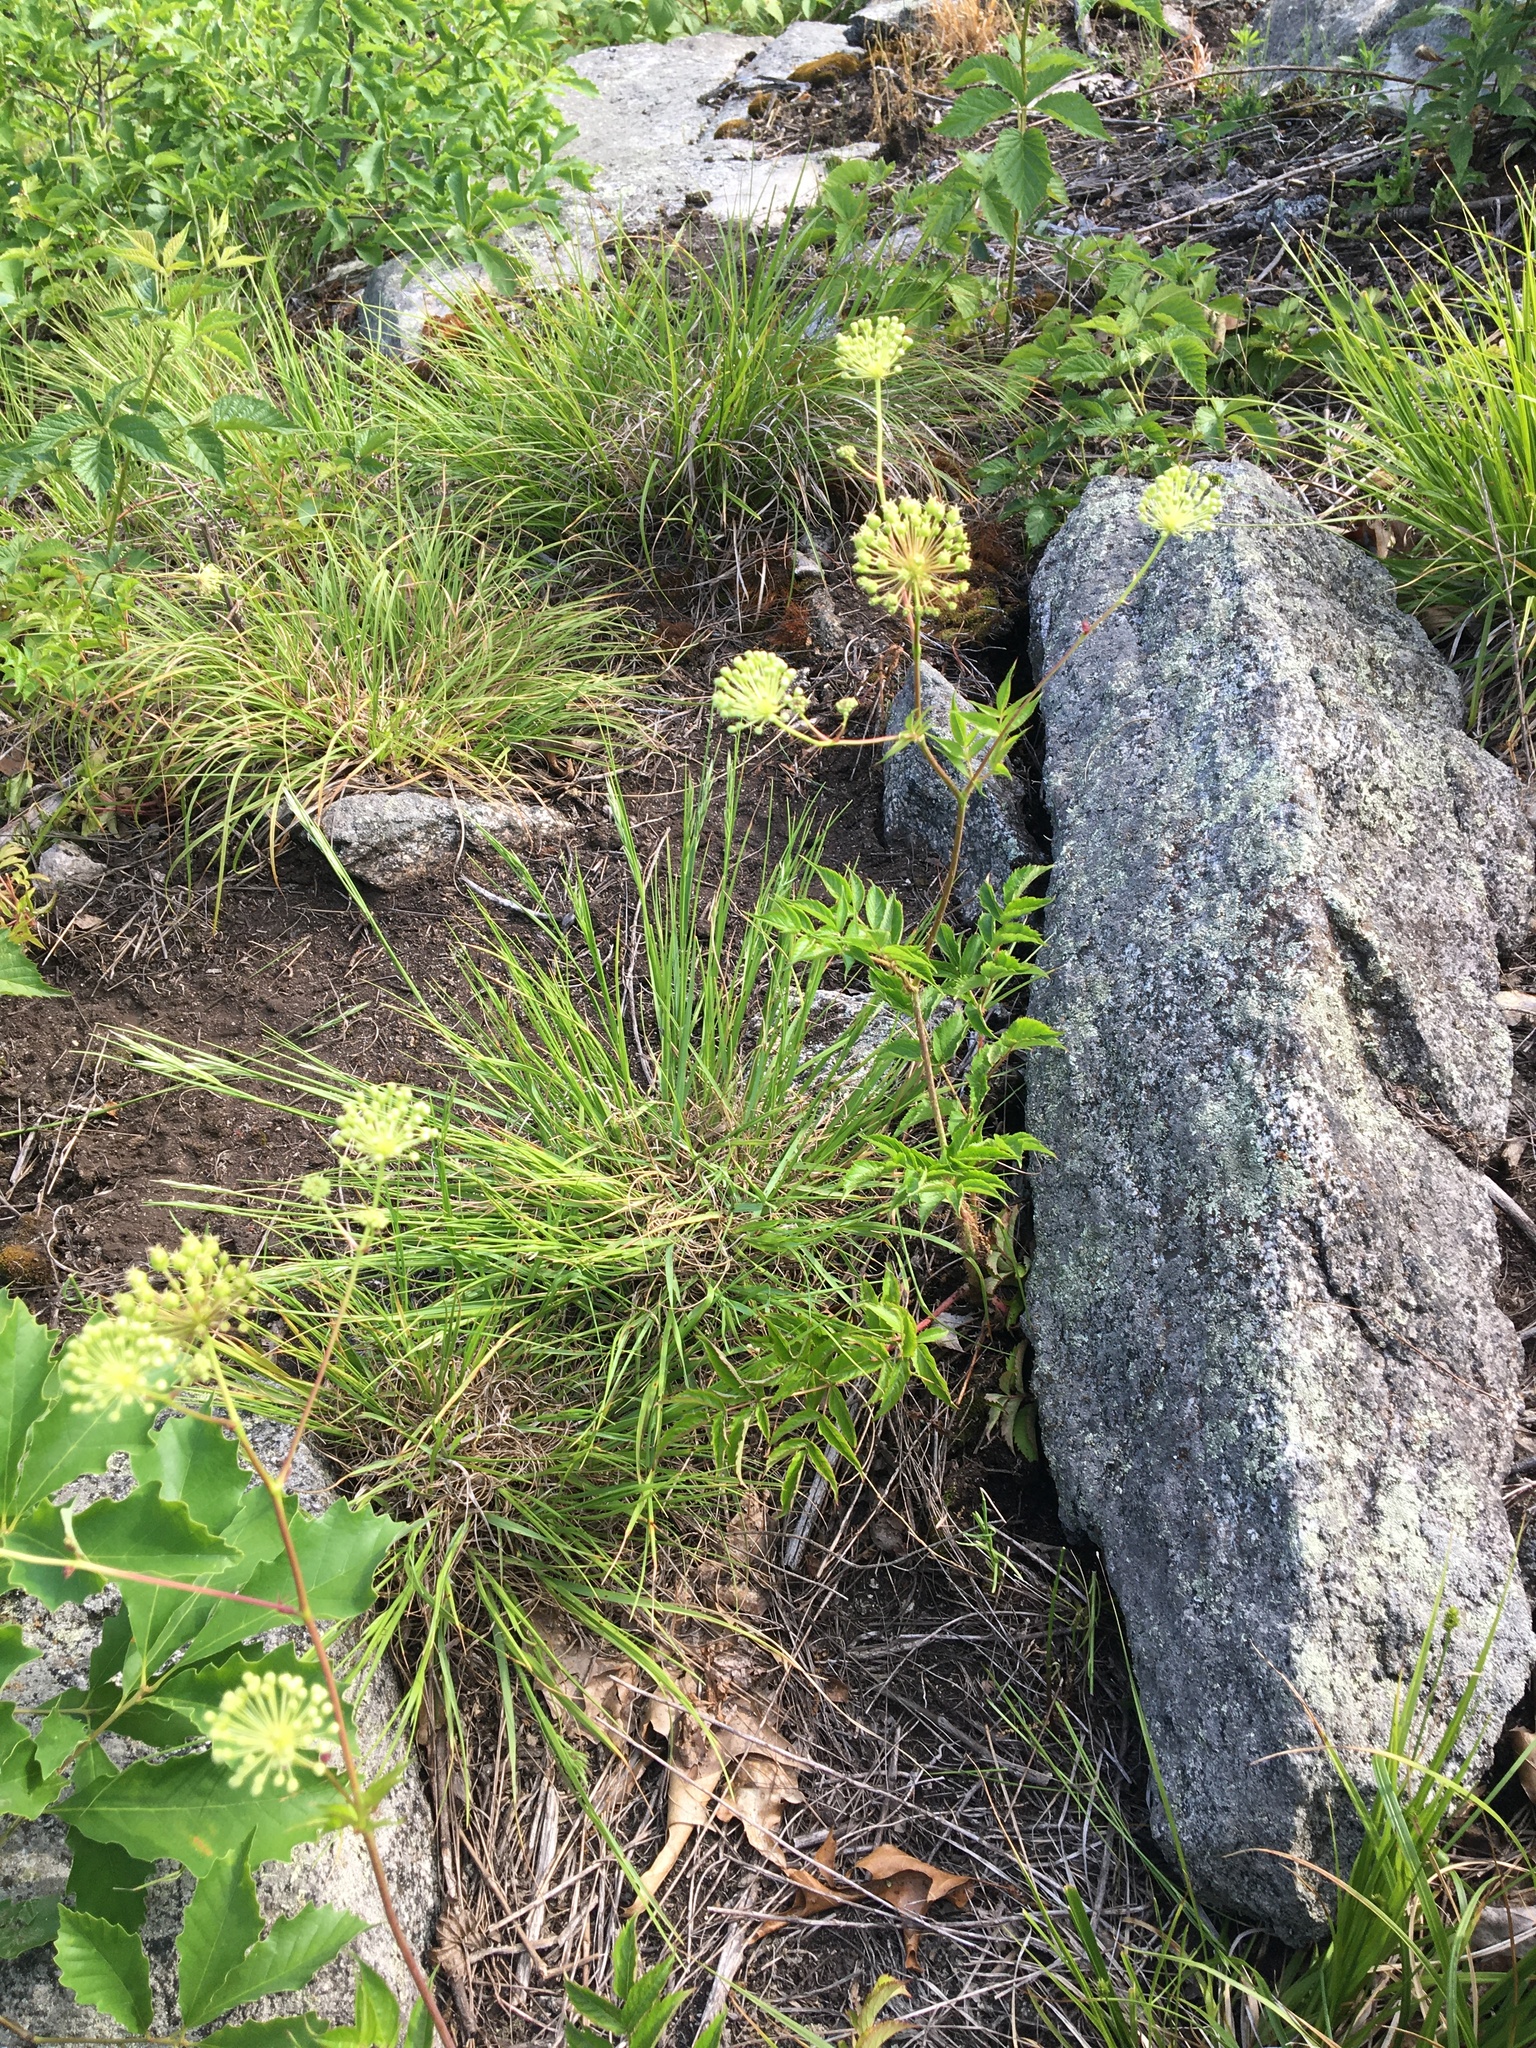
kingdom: Plantae
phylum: Tracheophyta
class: Magnoliopsida
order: Apiales
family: Araliaceae
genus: Aralia
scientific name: Aralia hispida
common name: Bristly sarsaparilla
